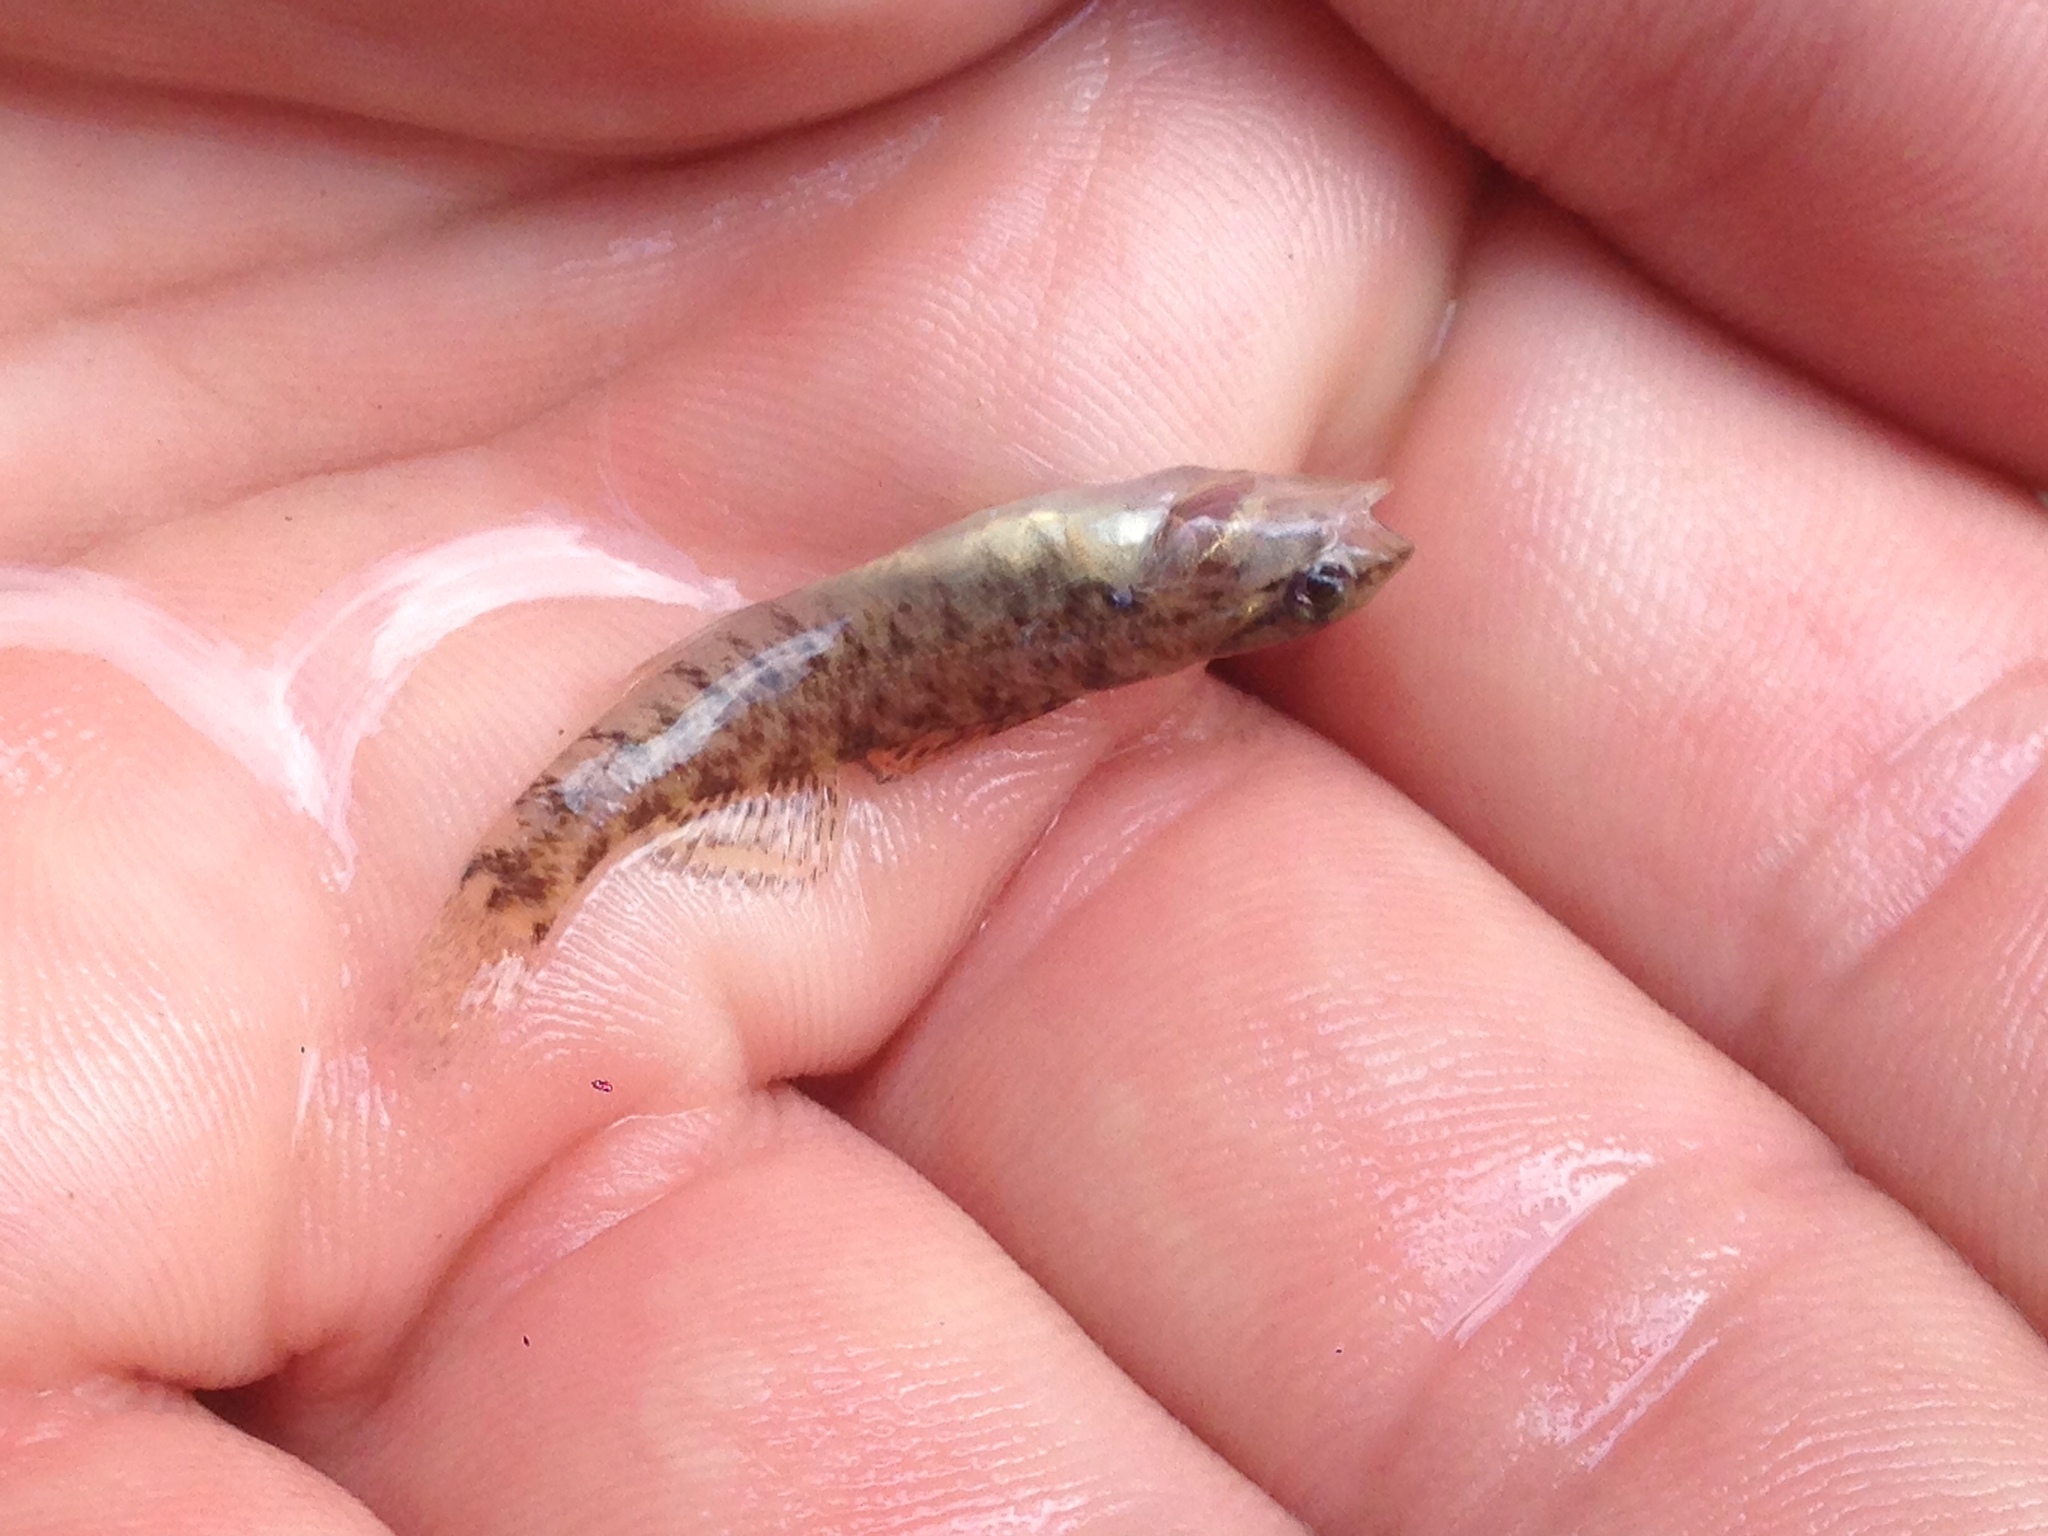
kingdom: Animalia
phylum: Chordata
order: Perciformes
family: Percidae
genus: Etheostoma
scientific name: Etheostoma caeruleum
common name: Rainbow darter
